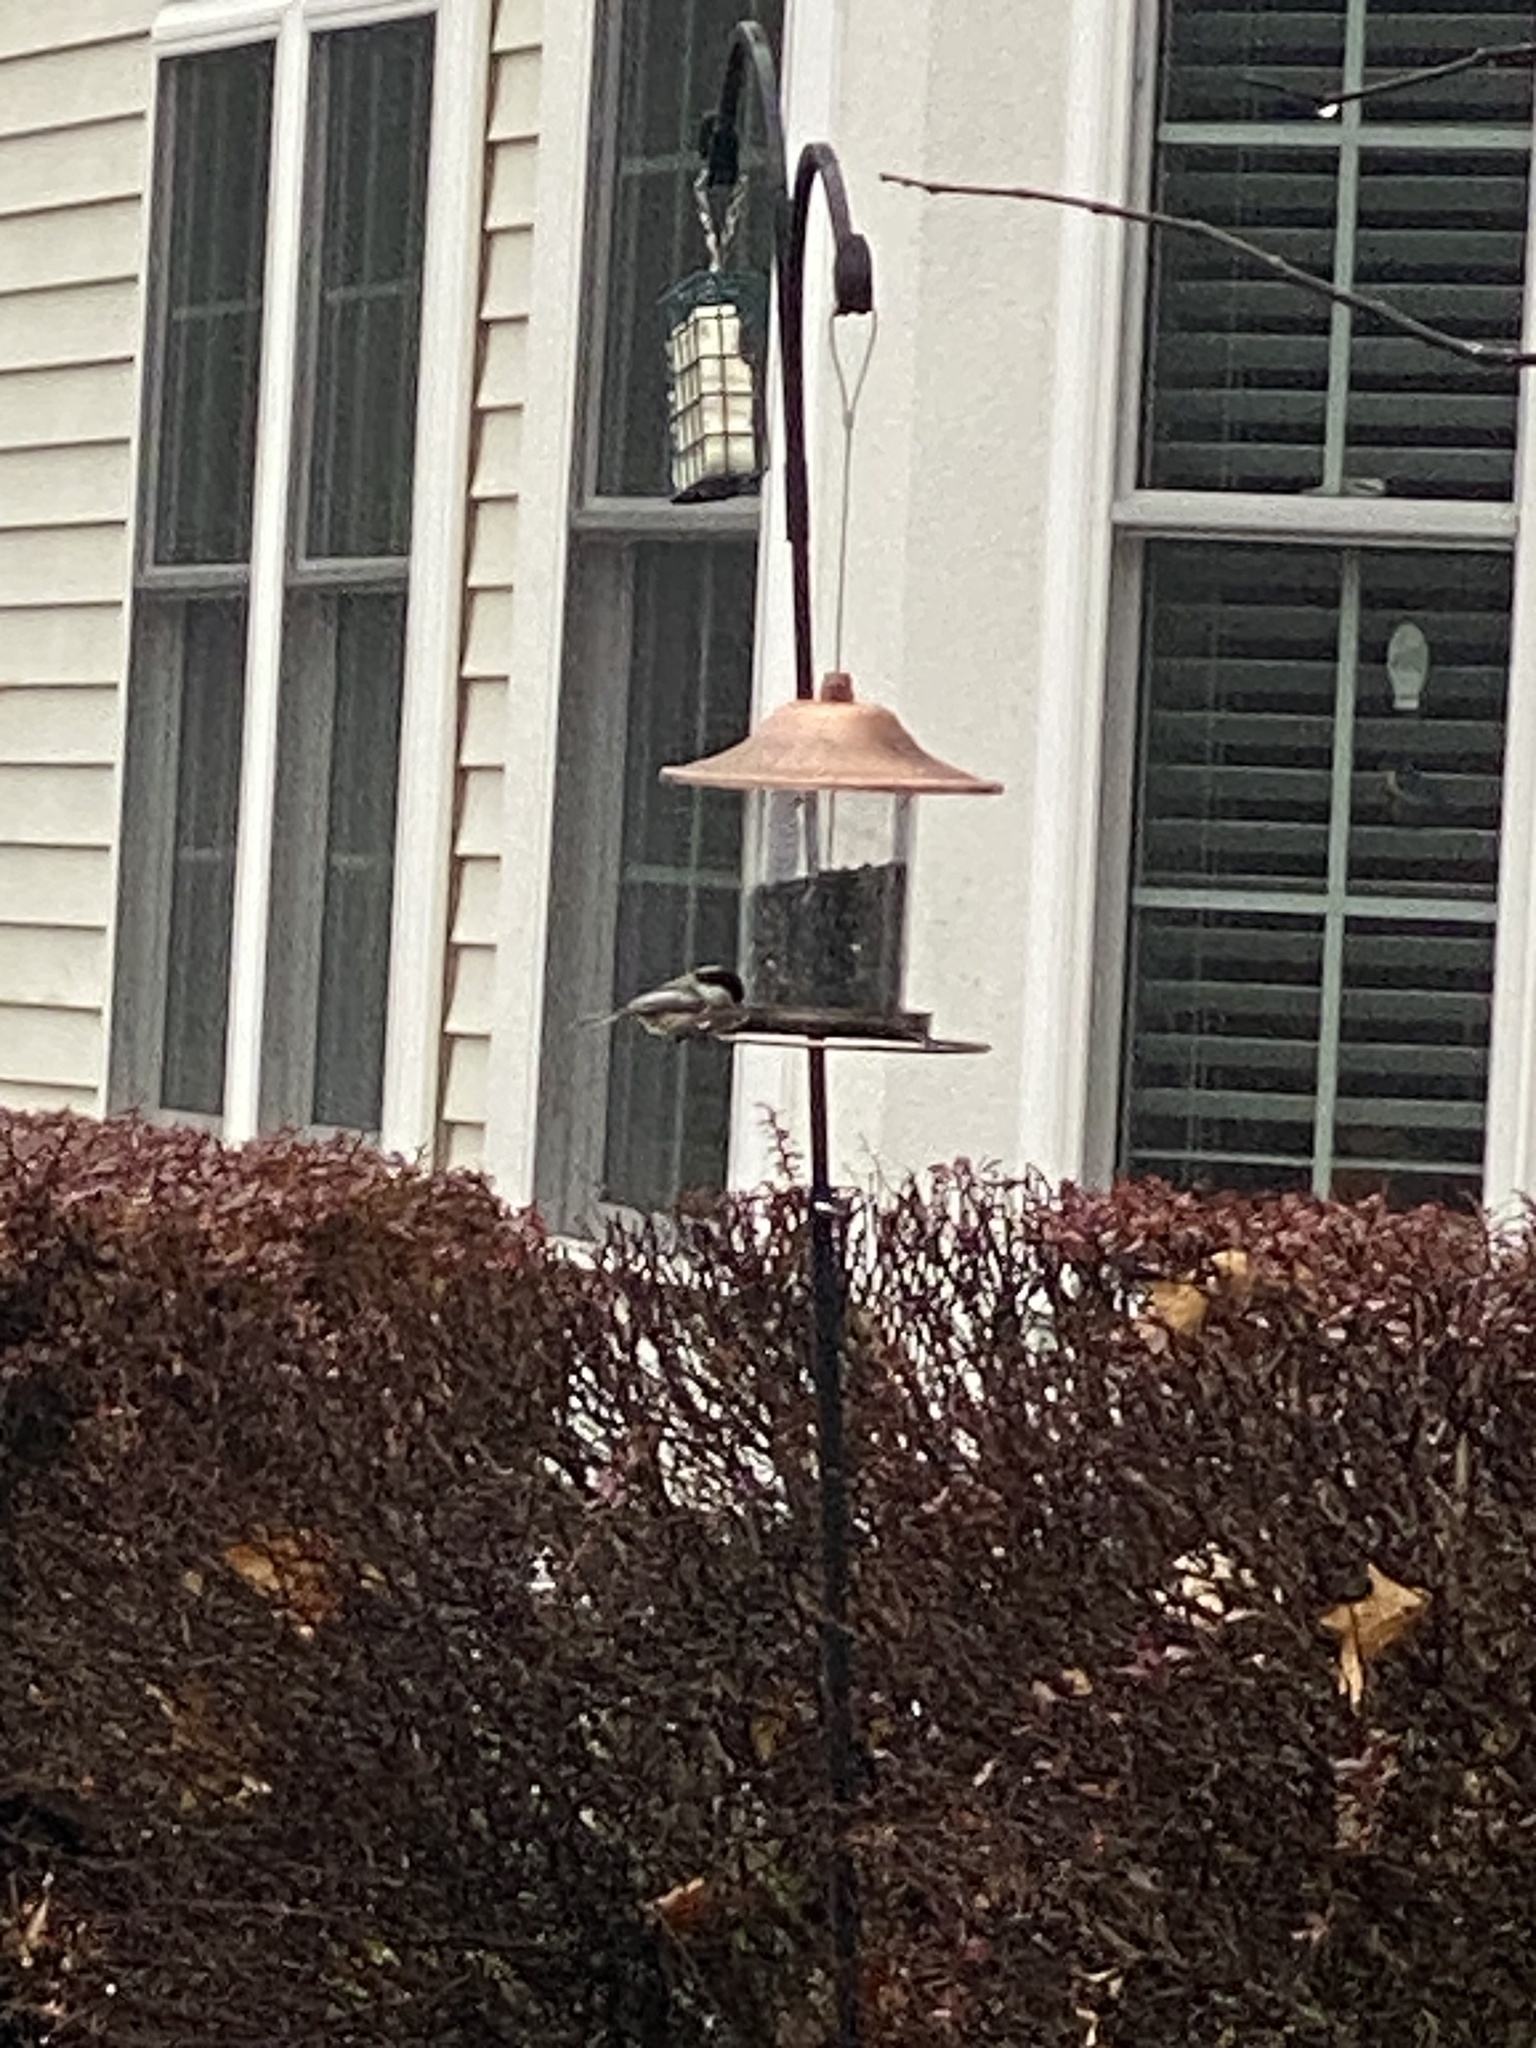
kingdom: Animalia
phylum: Chordata
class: Aves
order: Passeriformes
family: Paridae
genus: Poecile
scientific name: Poecile atricapillus
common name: Black-capped chickadee
